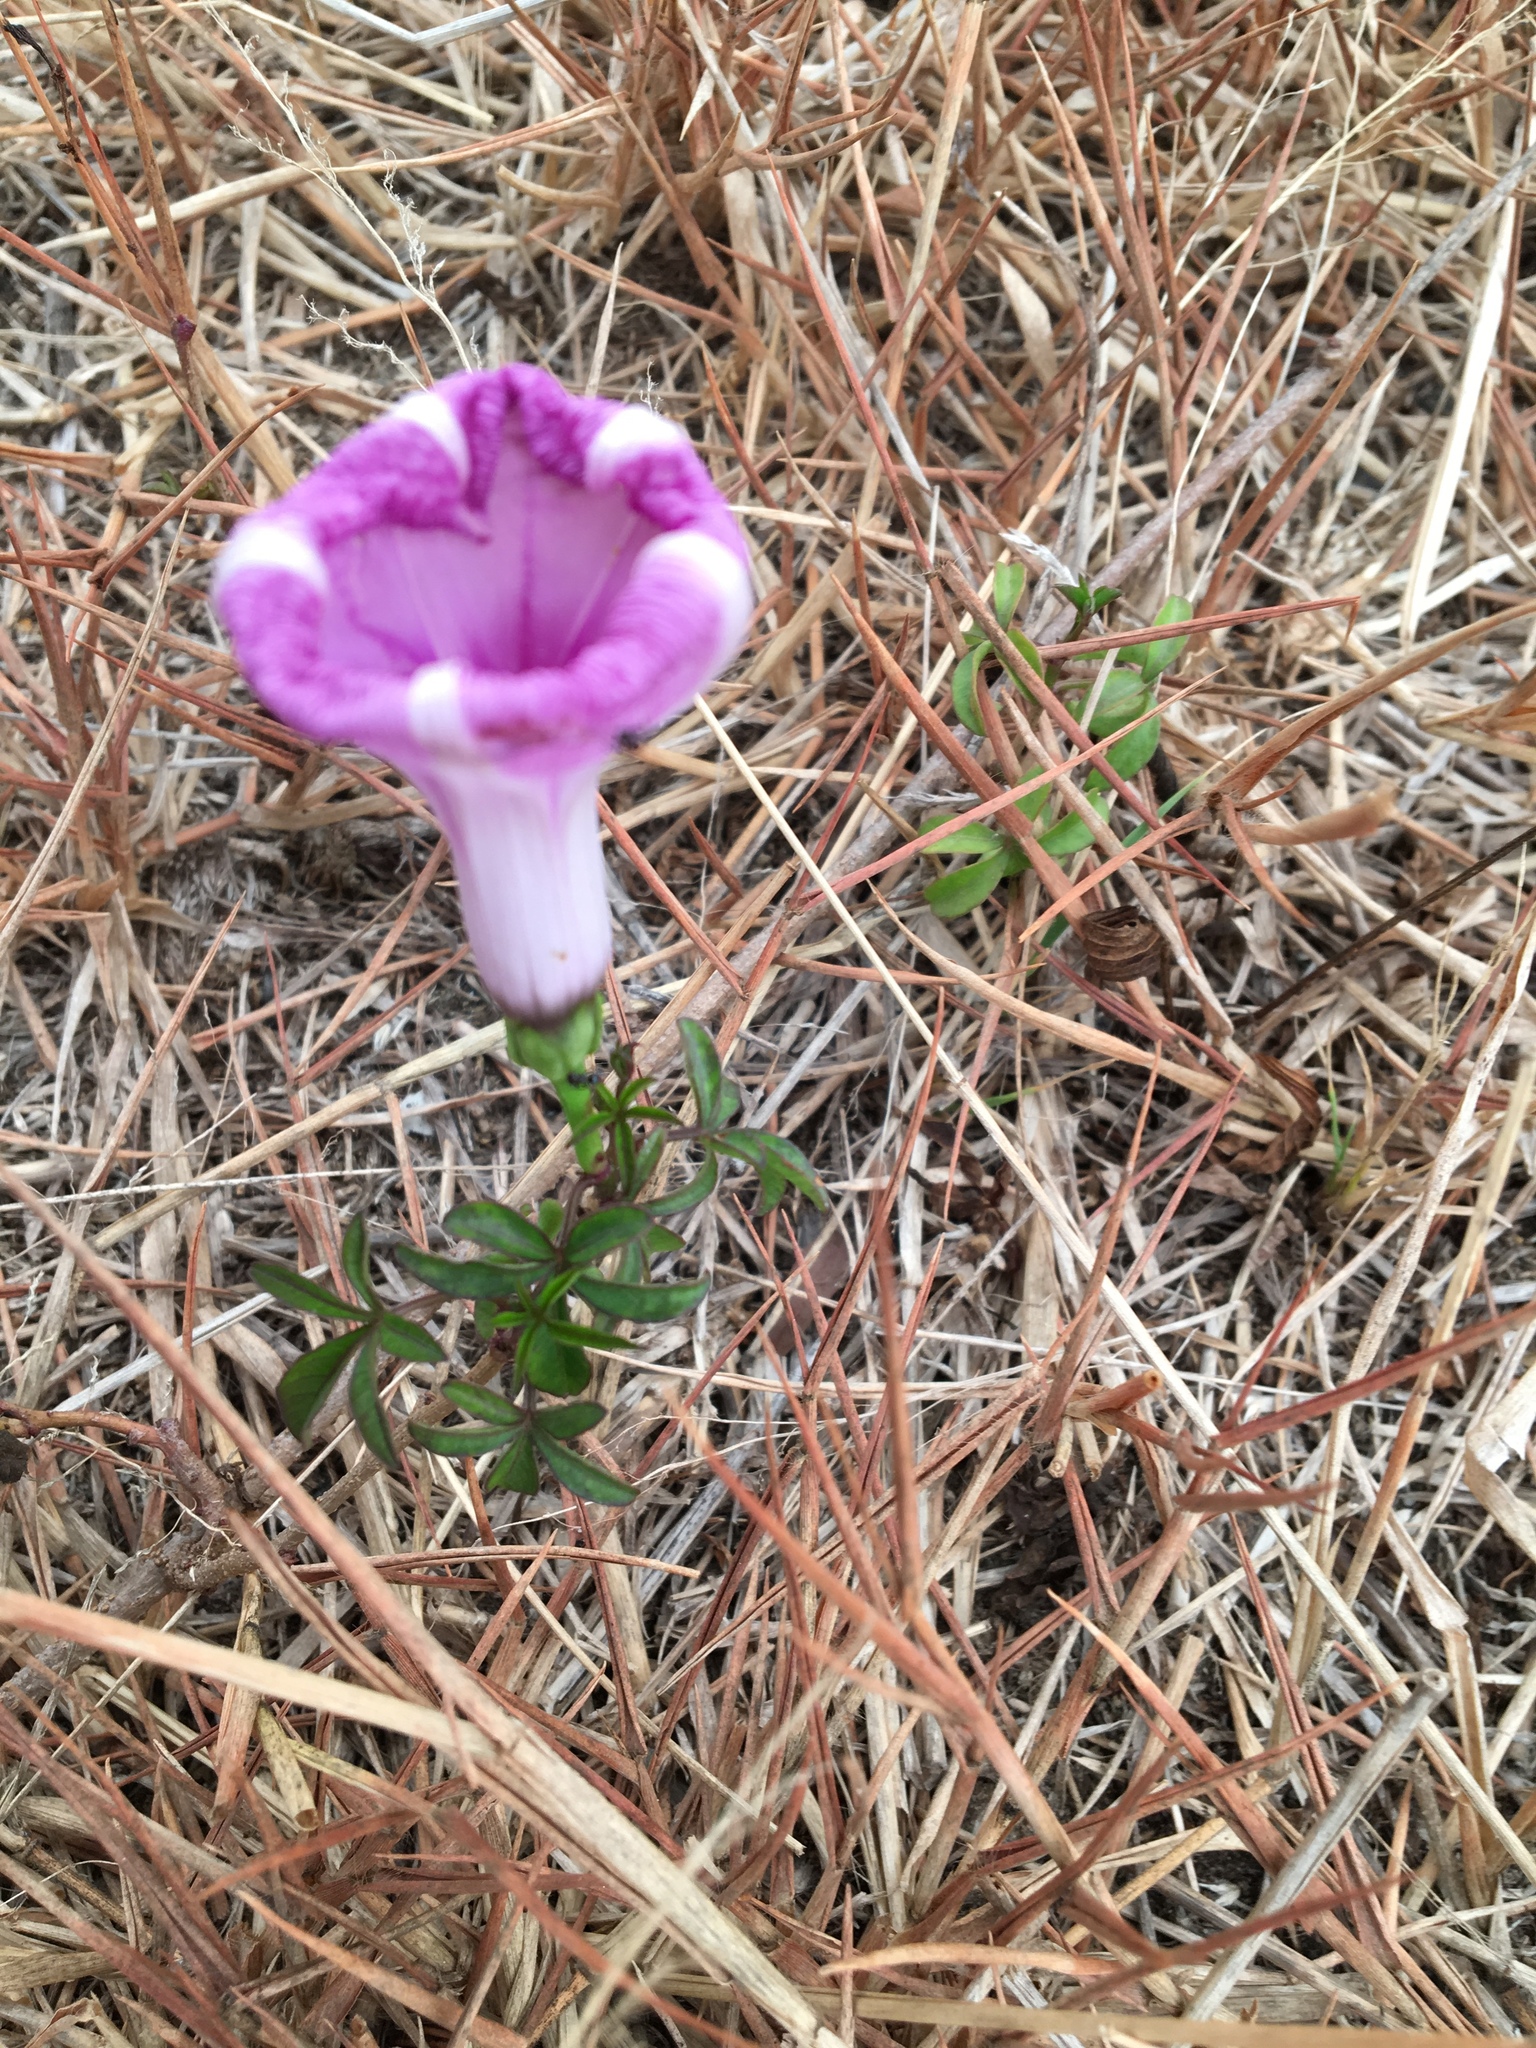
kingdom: Plantae
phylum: Tracheophyta
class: Magnoliopsida
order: Solanales
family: Convolvulaceae
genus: Ipomoea
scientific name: Ipomoea cairica
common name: Mile a minute vine
